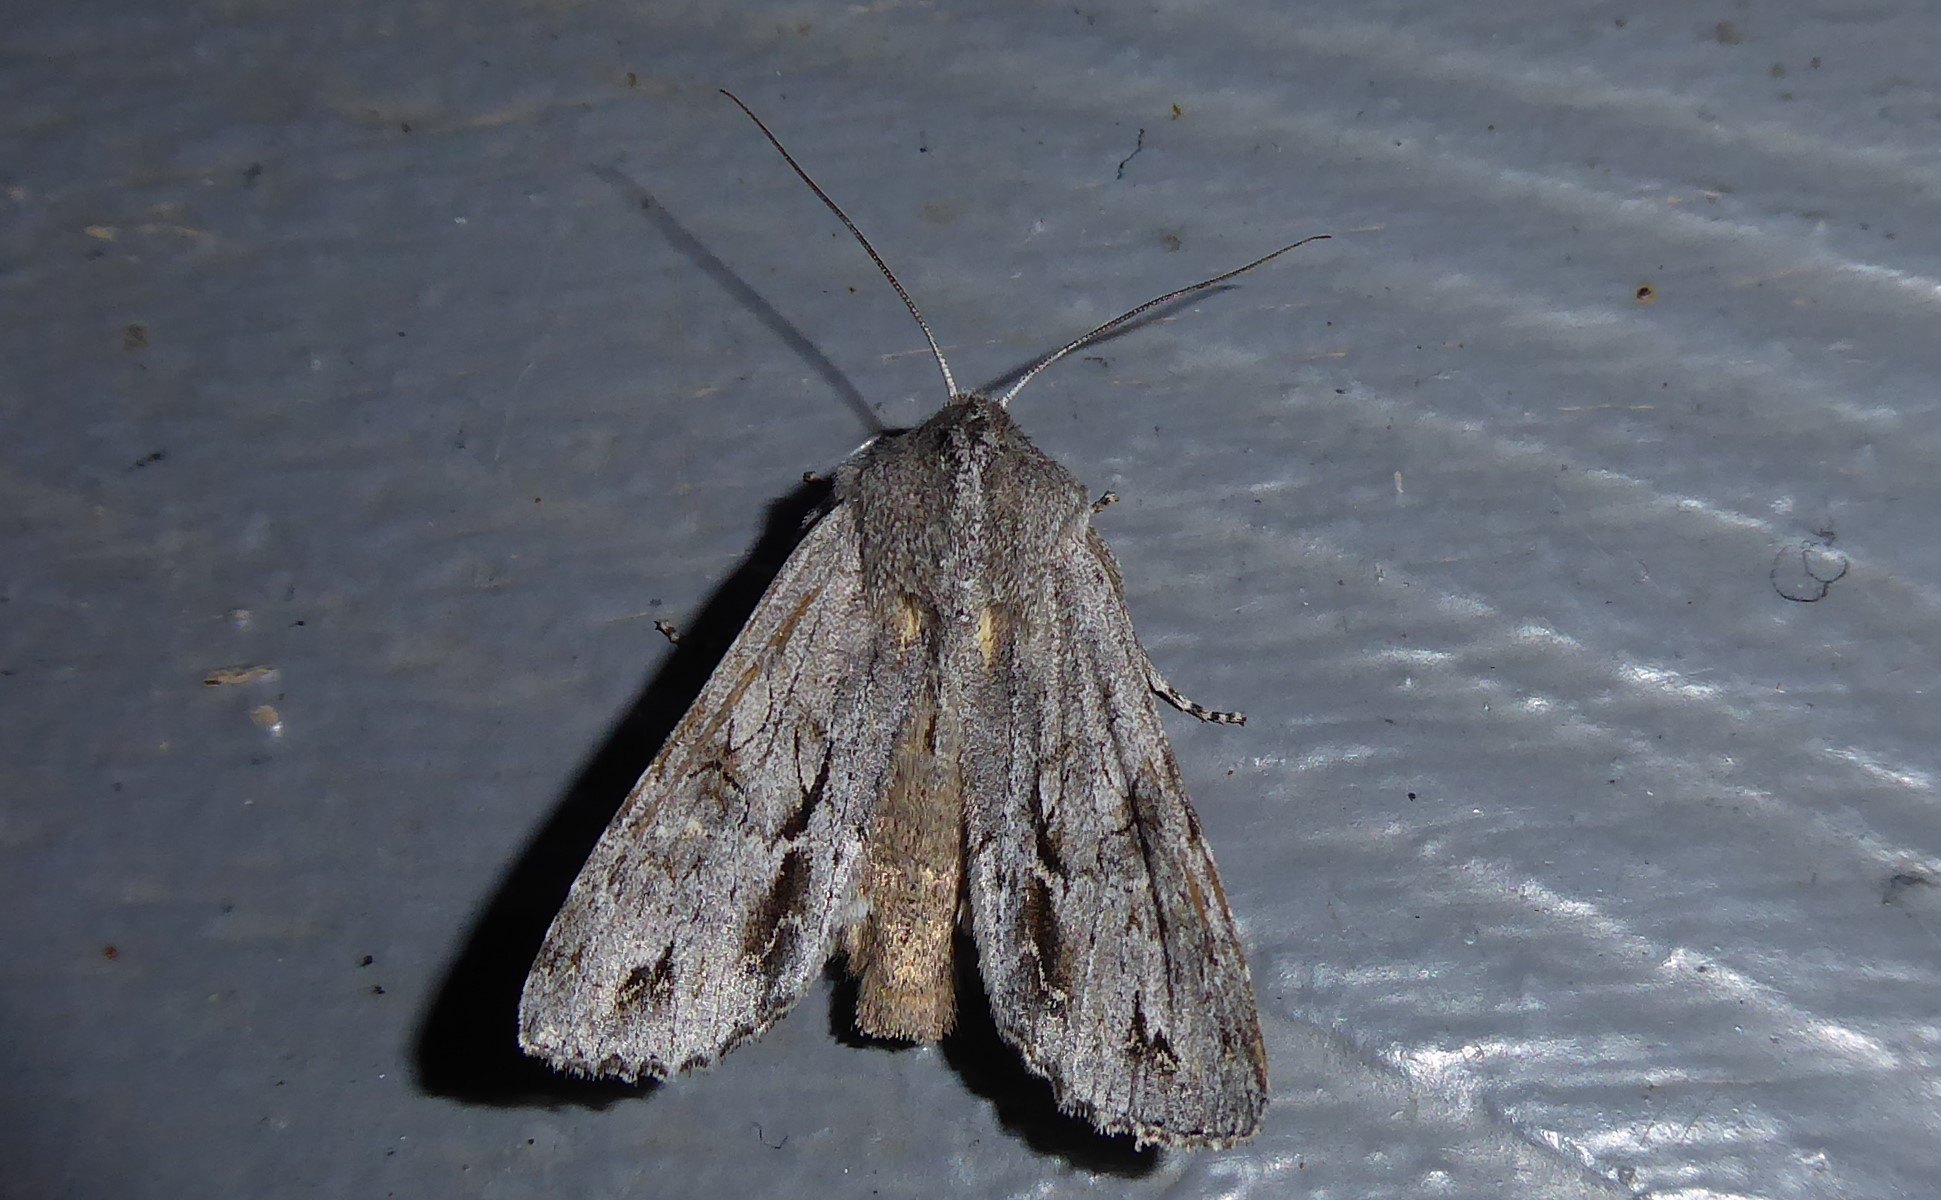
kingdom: Animalia
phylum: Arthropoda
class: Insecta
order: Lepidoptera
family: Noctuidae
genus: Ichneutica
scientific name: Ichneutica
